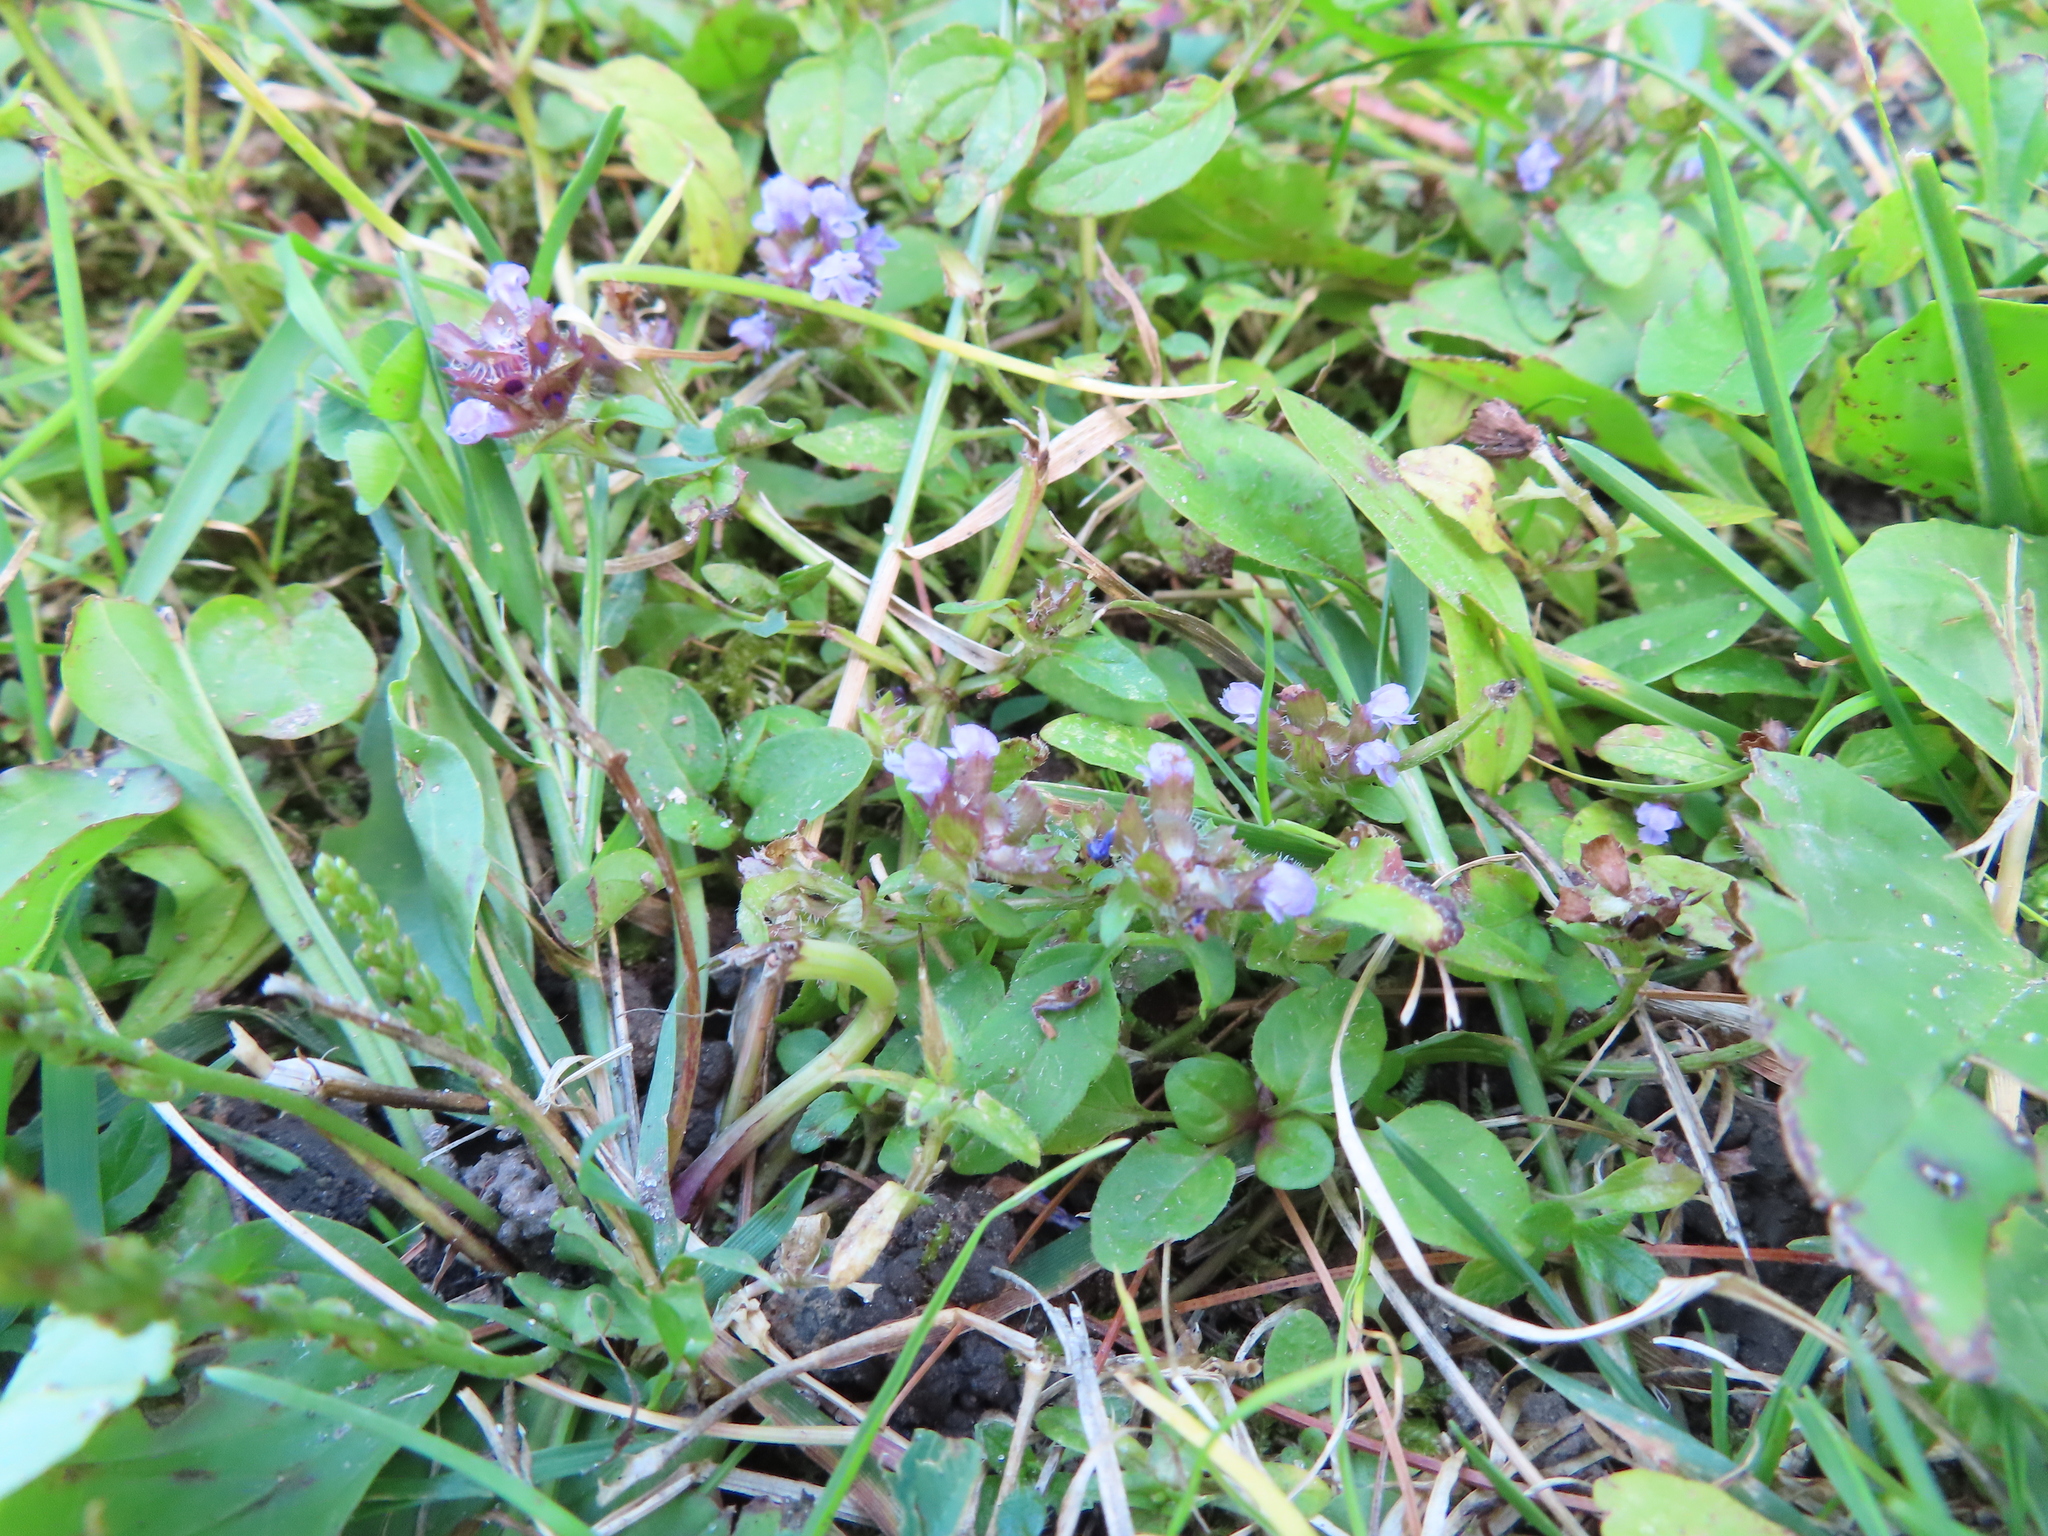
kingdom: Plantae
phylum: Tracheophyta
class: Magnoliopsida
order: Lamiales
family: Lamiaceae
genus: Prunella
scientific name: Prunella vulgaris
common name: Heal-all
